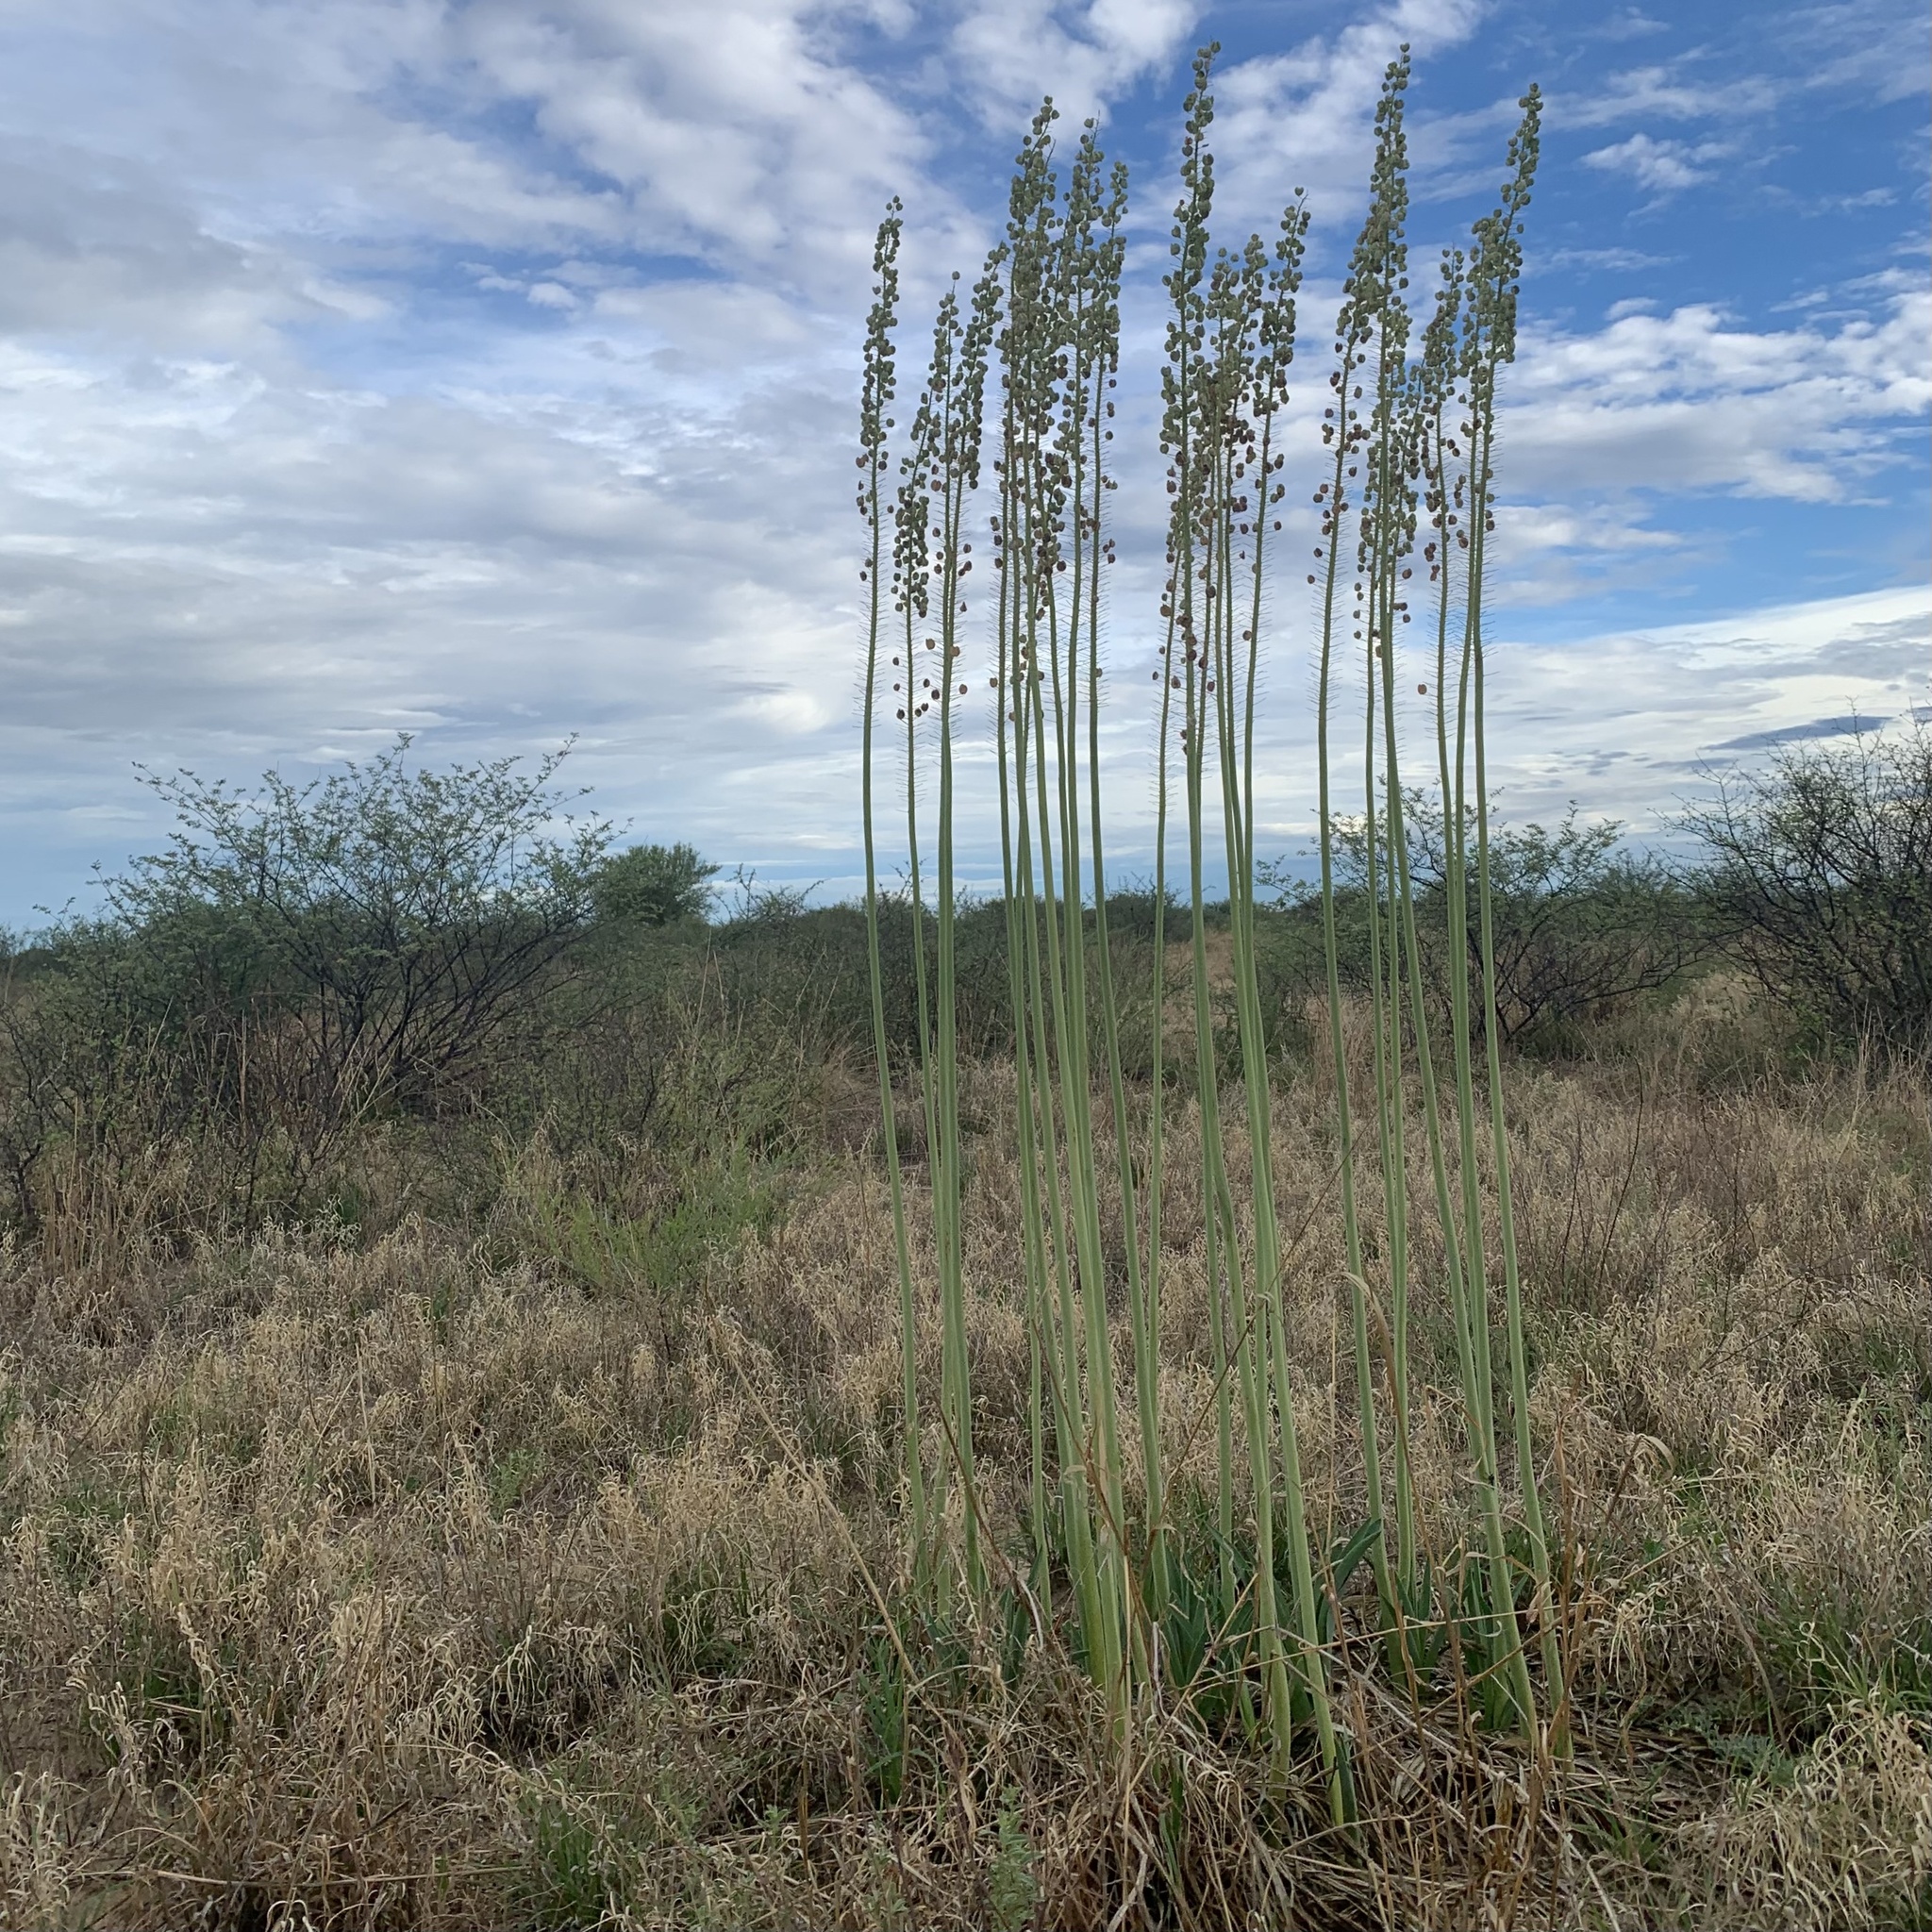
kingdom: Plantae
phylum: Tracheophyta
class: Liliopsida
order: Asparagales
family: Asparagaceae
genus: Drimia
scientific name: Drimia altissima
